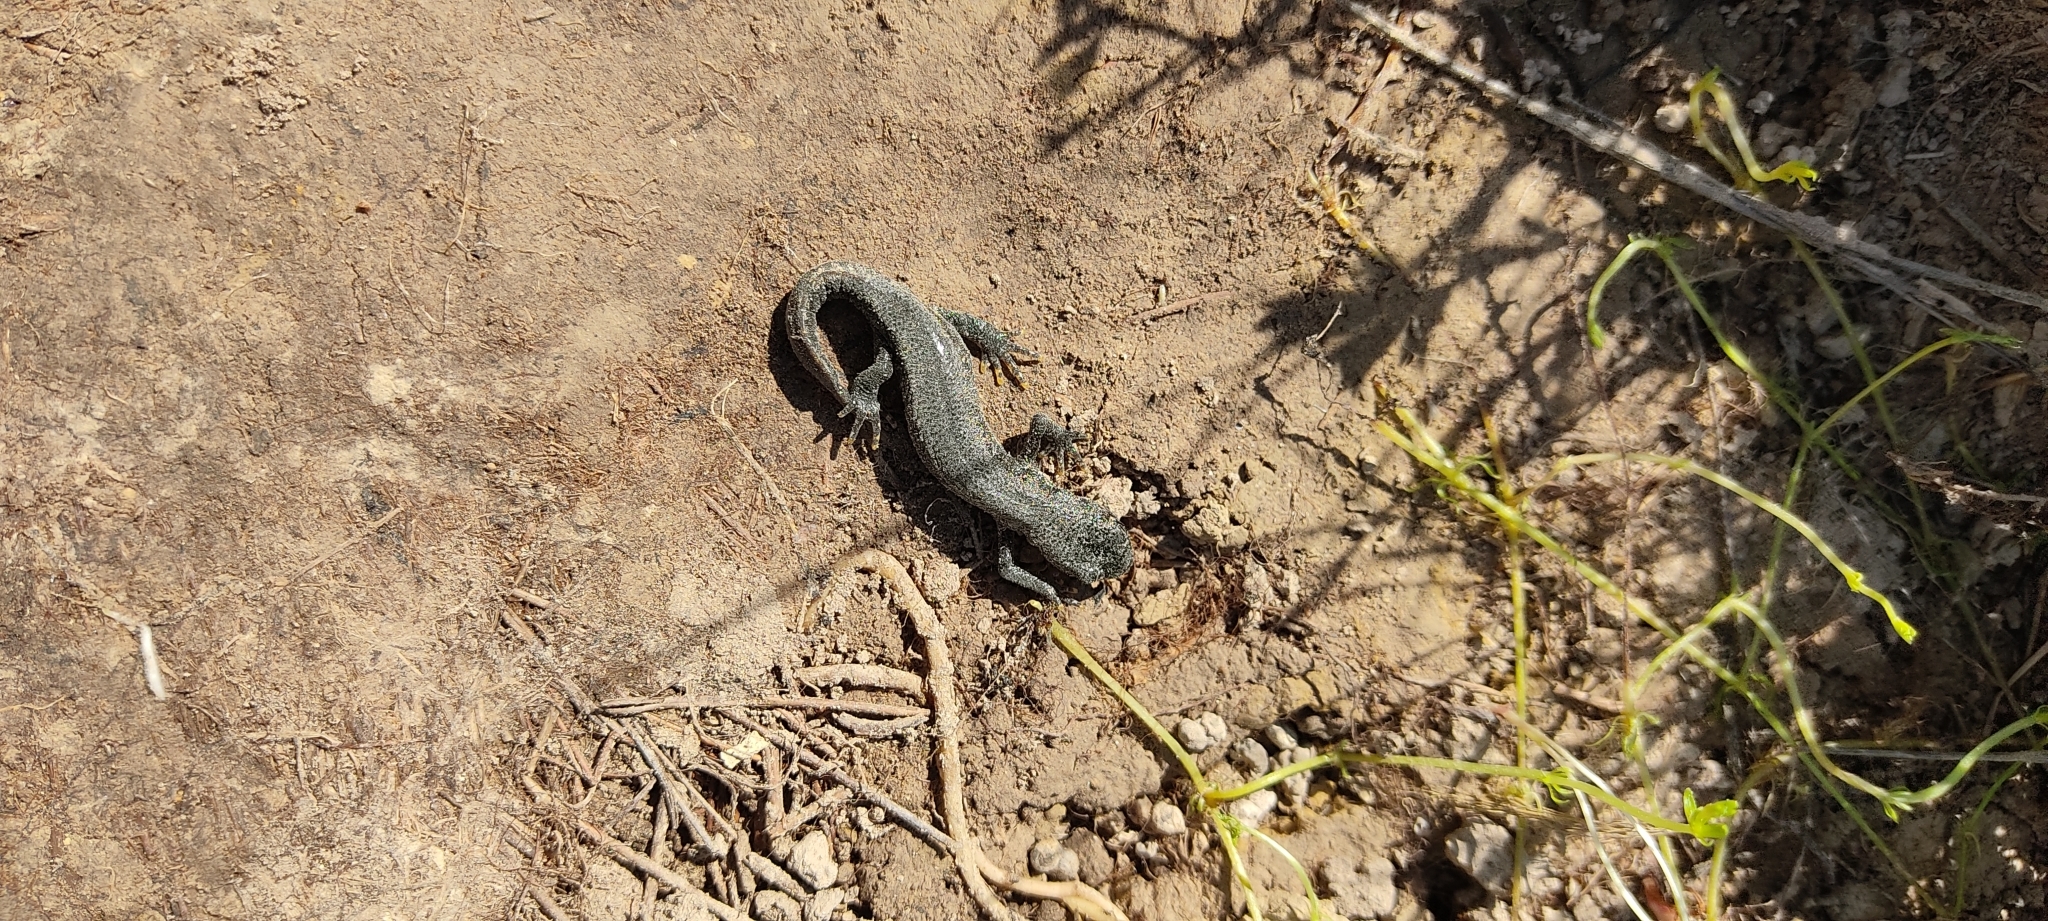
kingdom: Animalia
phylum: Chordata
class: Amphibia
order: Caudata
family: Salamandridae
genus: Triturus
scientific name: Triturus cristatus
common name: Crested newt
